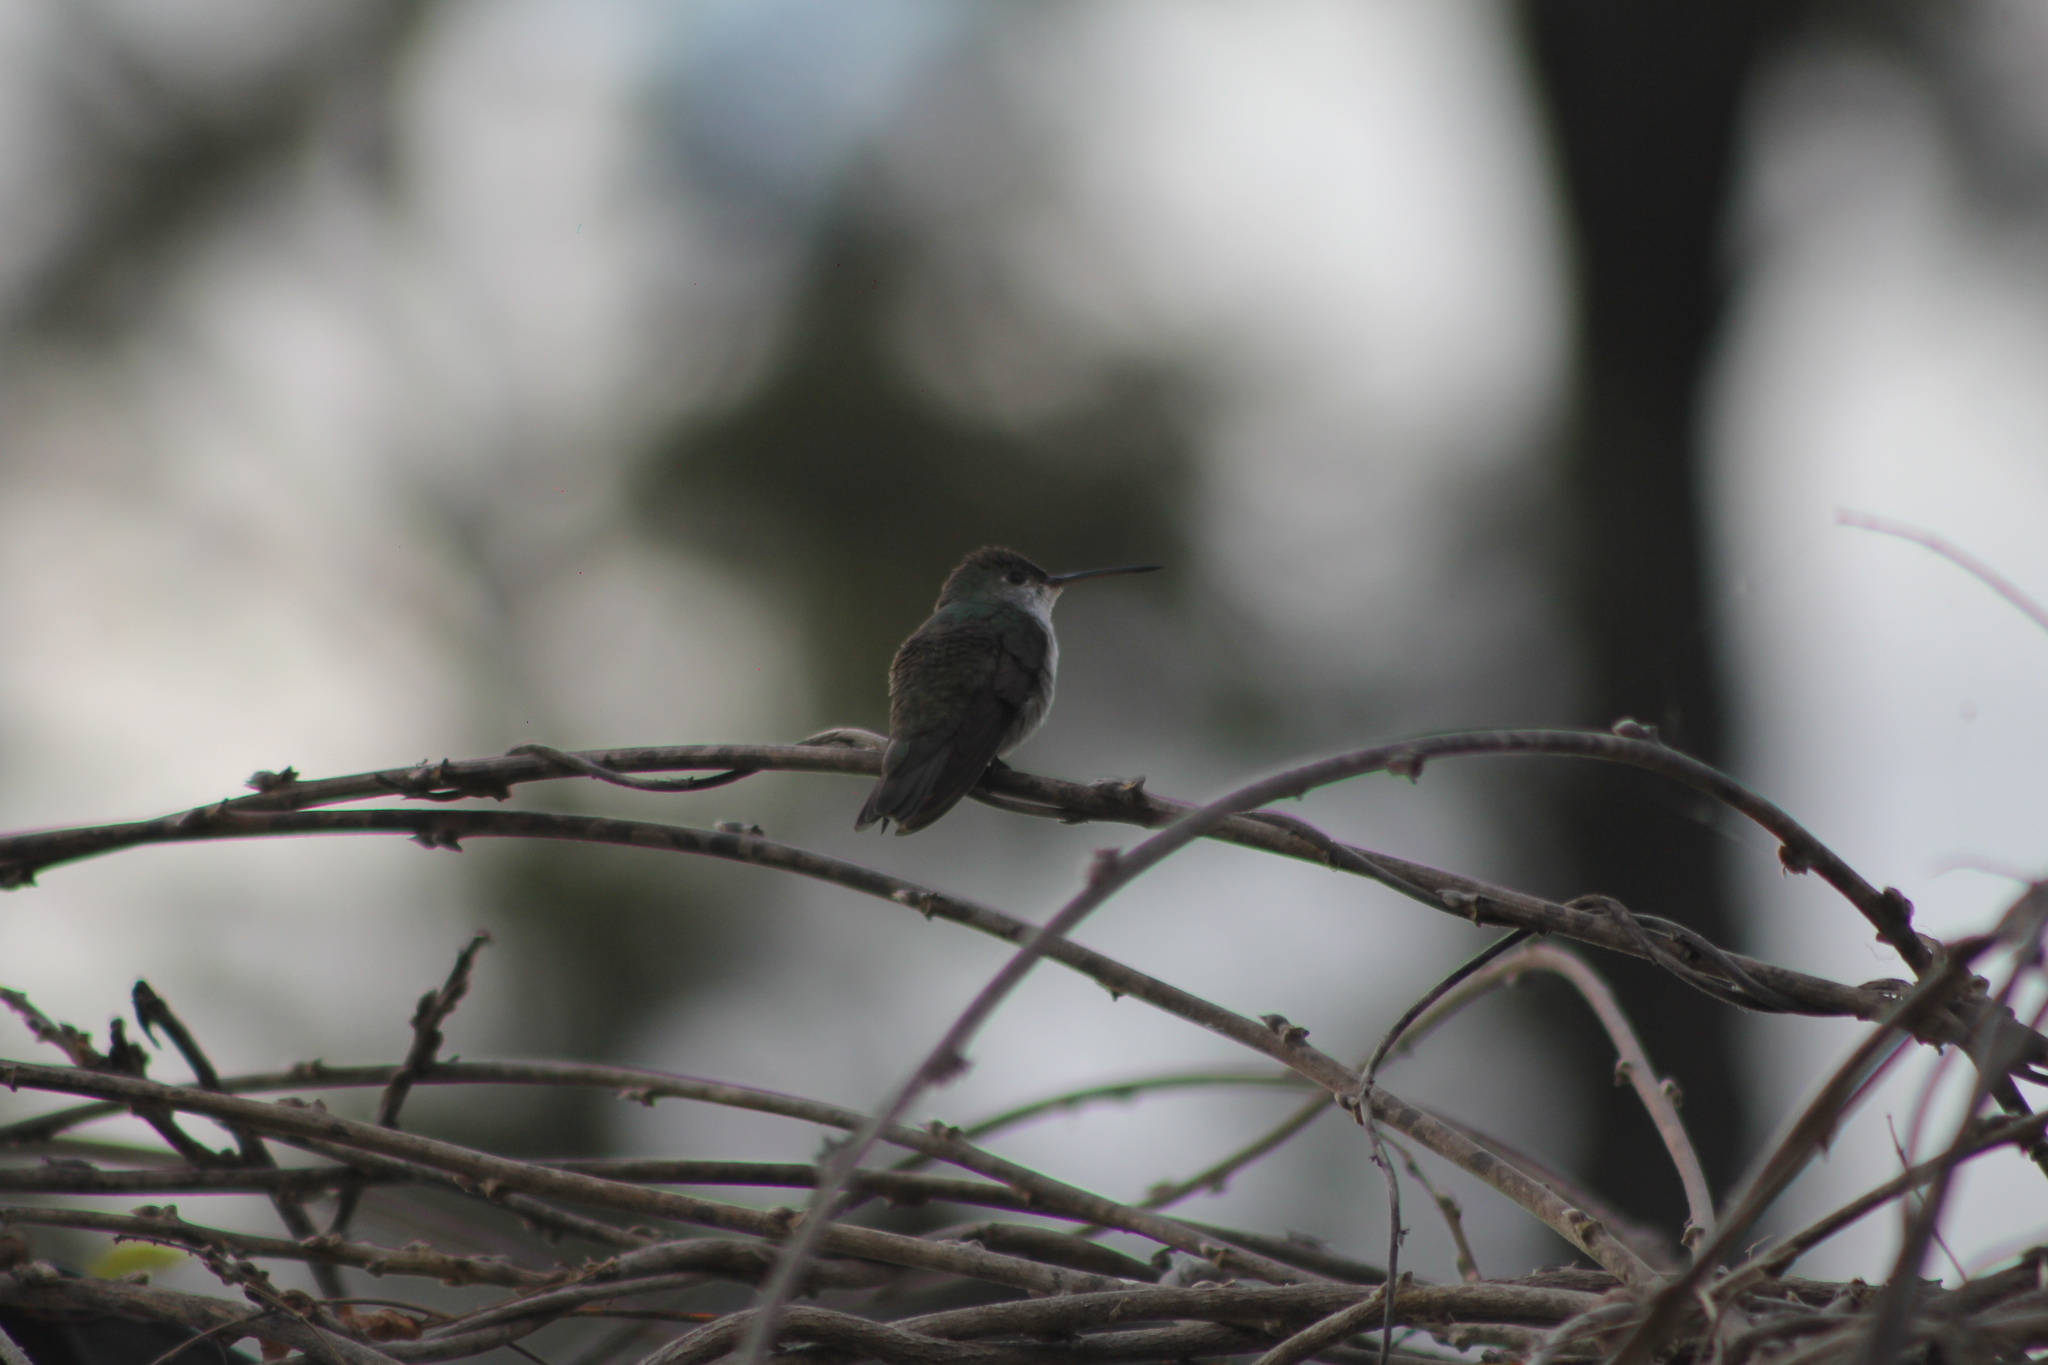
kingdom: Animalia
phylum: Chordata
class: Aves
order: Apodiformes
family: Trochilidae
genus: Elliotomyia
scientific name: Elliotomyia chionogaster
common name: White-bellied hummingbird
